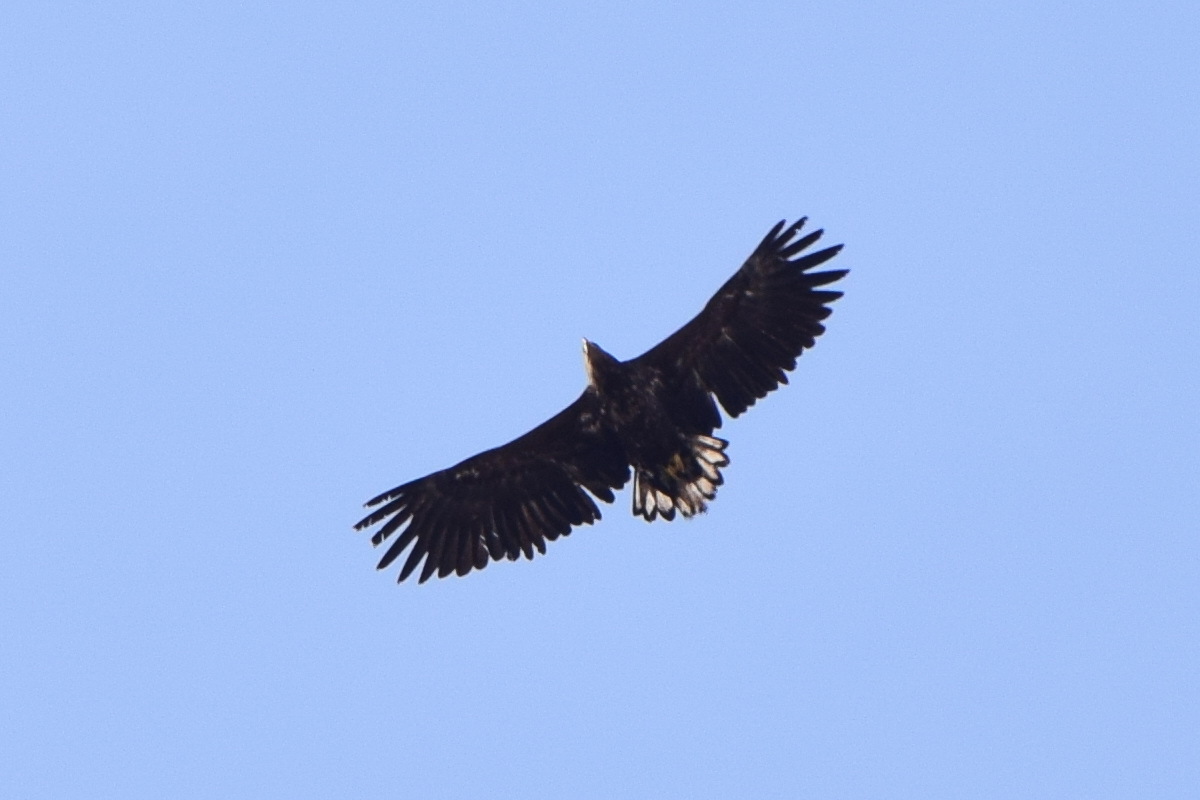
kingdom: Animalia
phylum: Chordata
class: Aves
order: Accipitriformes
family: Accipitridae
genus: Haliaeetus
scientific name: Haliaeetus albicilla
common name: White-tailed eagle
